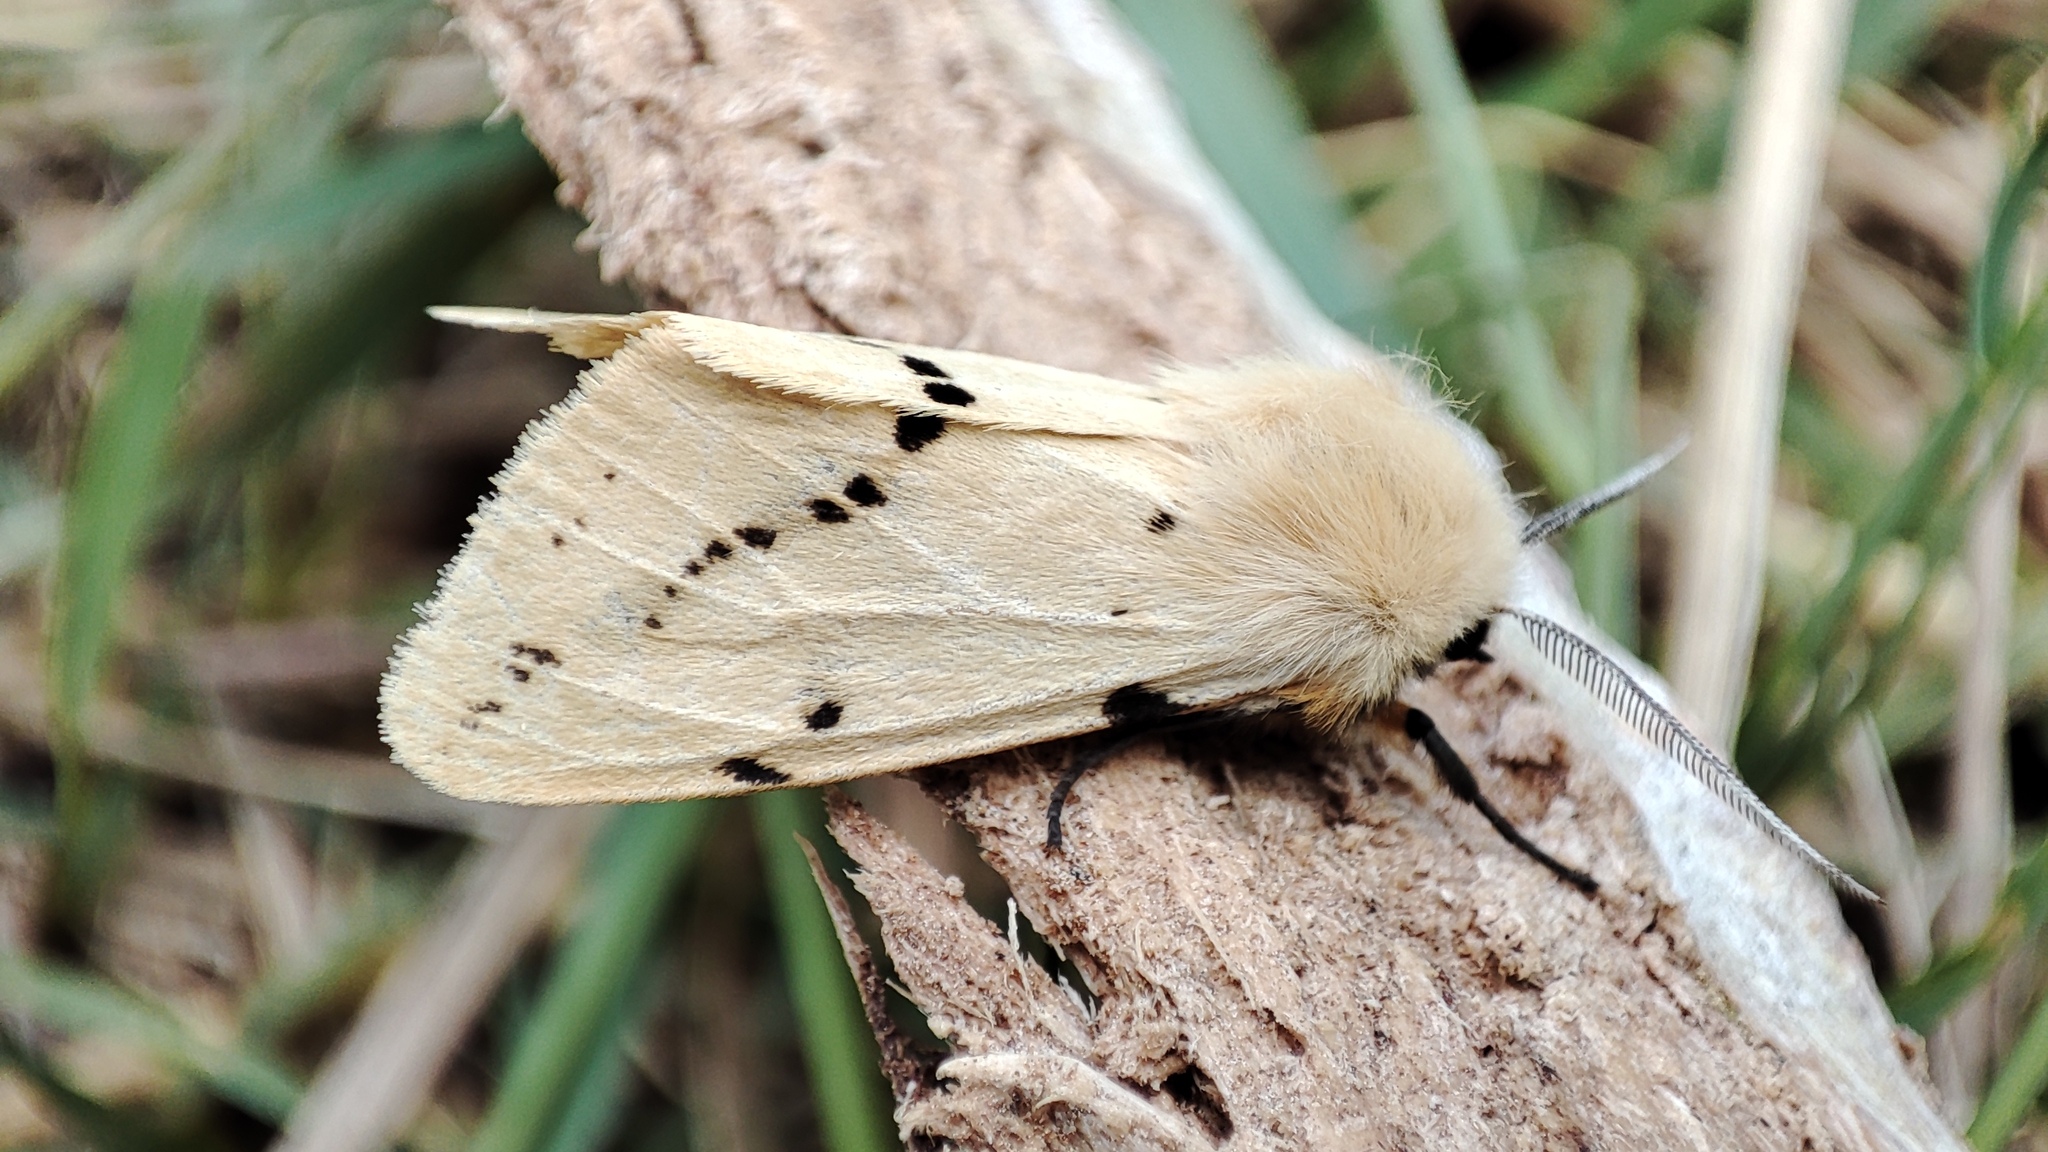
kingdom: Animalia
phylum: Arthropoda
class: Insecta
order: Lepidoptera
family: Erebidae
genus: Spilarctia
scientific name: Spilarctia lutea
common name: Buff ermine
